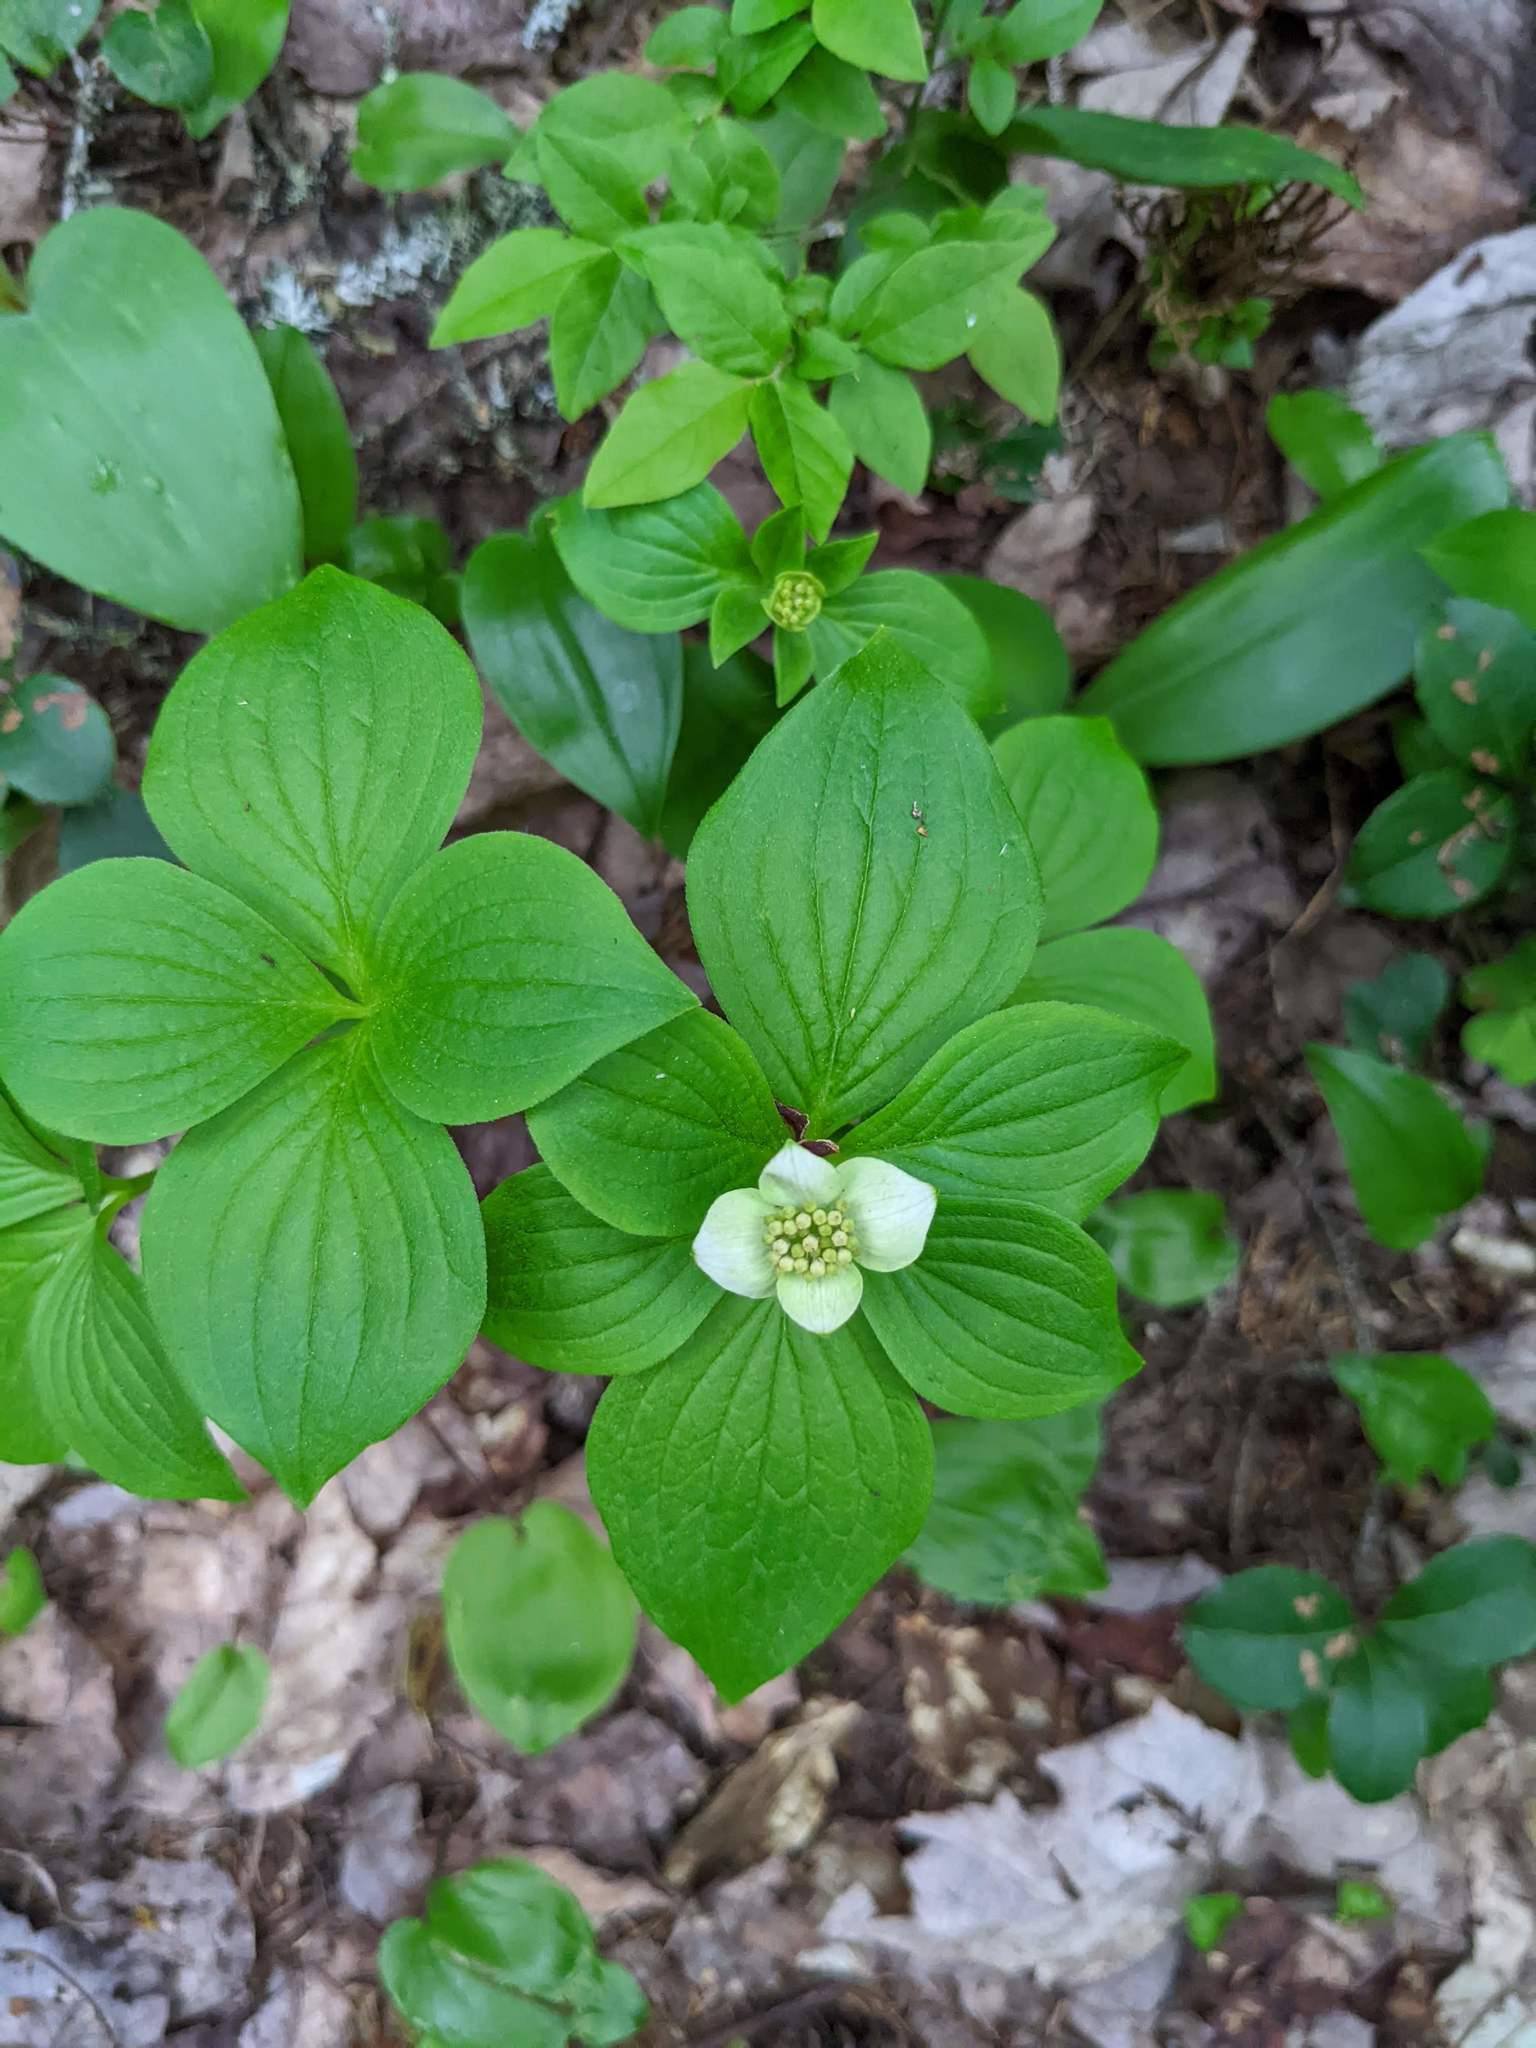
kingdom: Plantae
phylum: Tracheophyta
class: Magnoliopsida
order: Cornales
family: Cornaceae
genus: Cornus
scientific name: Cornus canadensis
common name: Creeping dogwood
